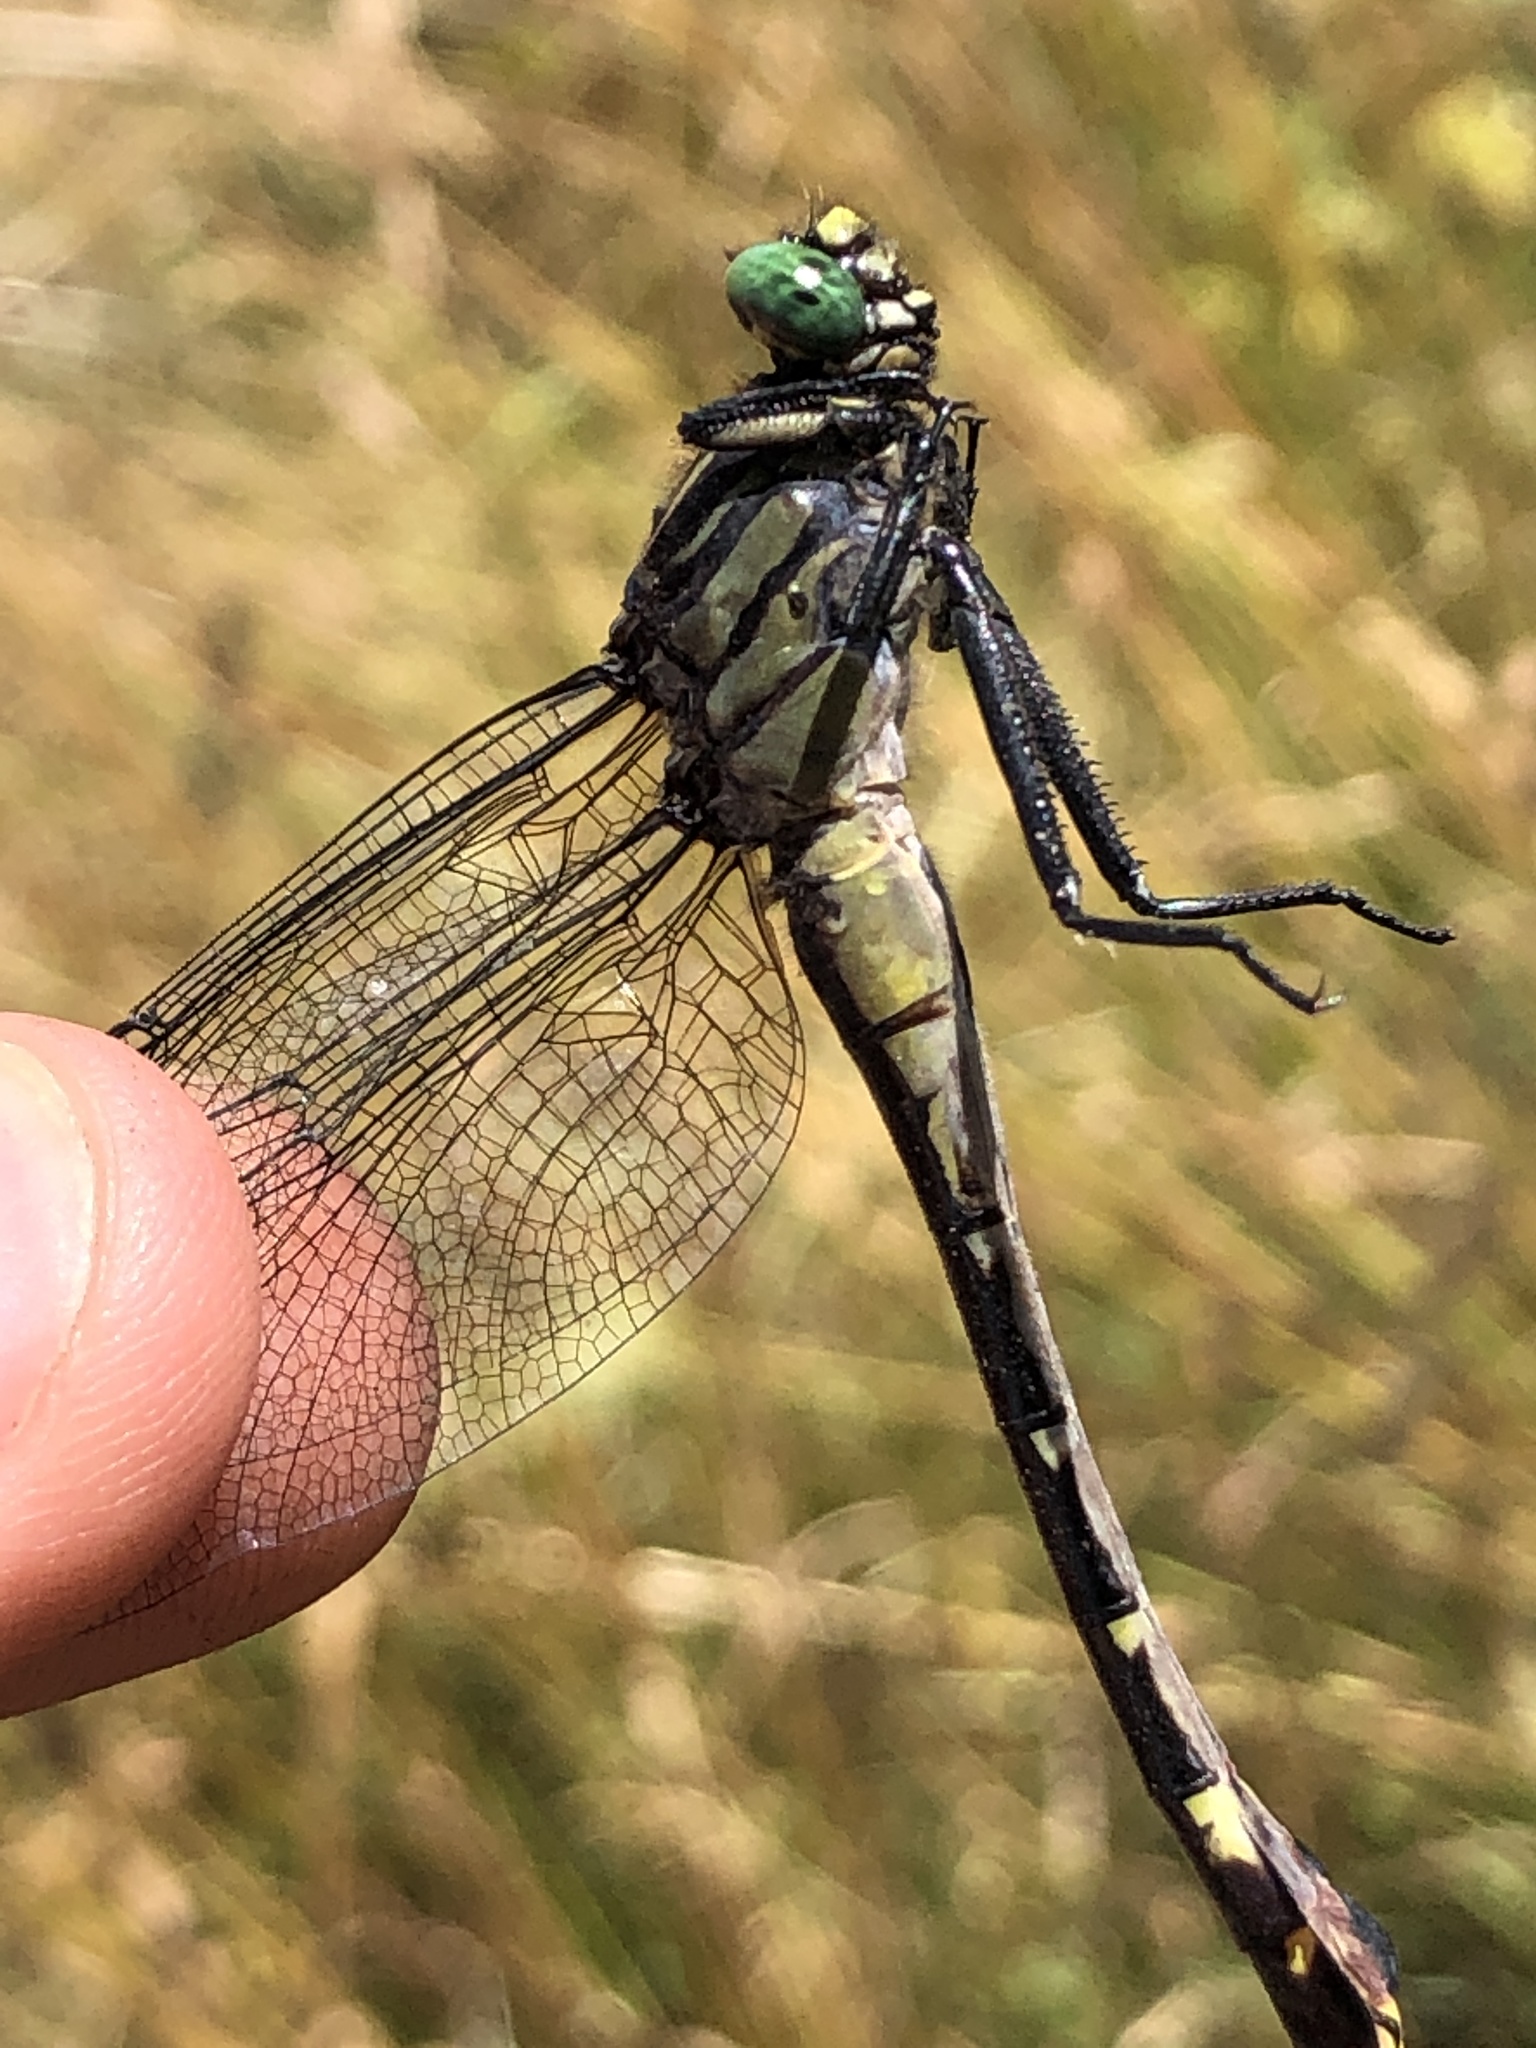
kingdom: Animalia
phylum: Arthropoda
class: Insecta
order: Odonata
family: Gomphidae
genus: Gomphurus
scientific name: Gomphurus vastus
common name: Cobra clubtail
